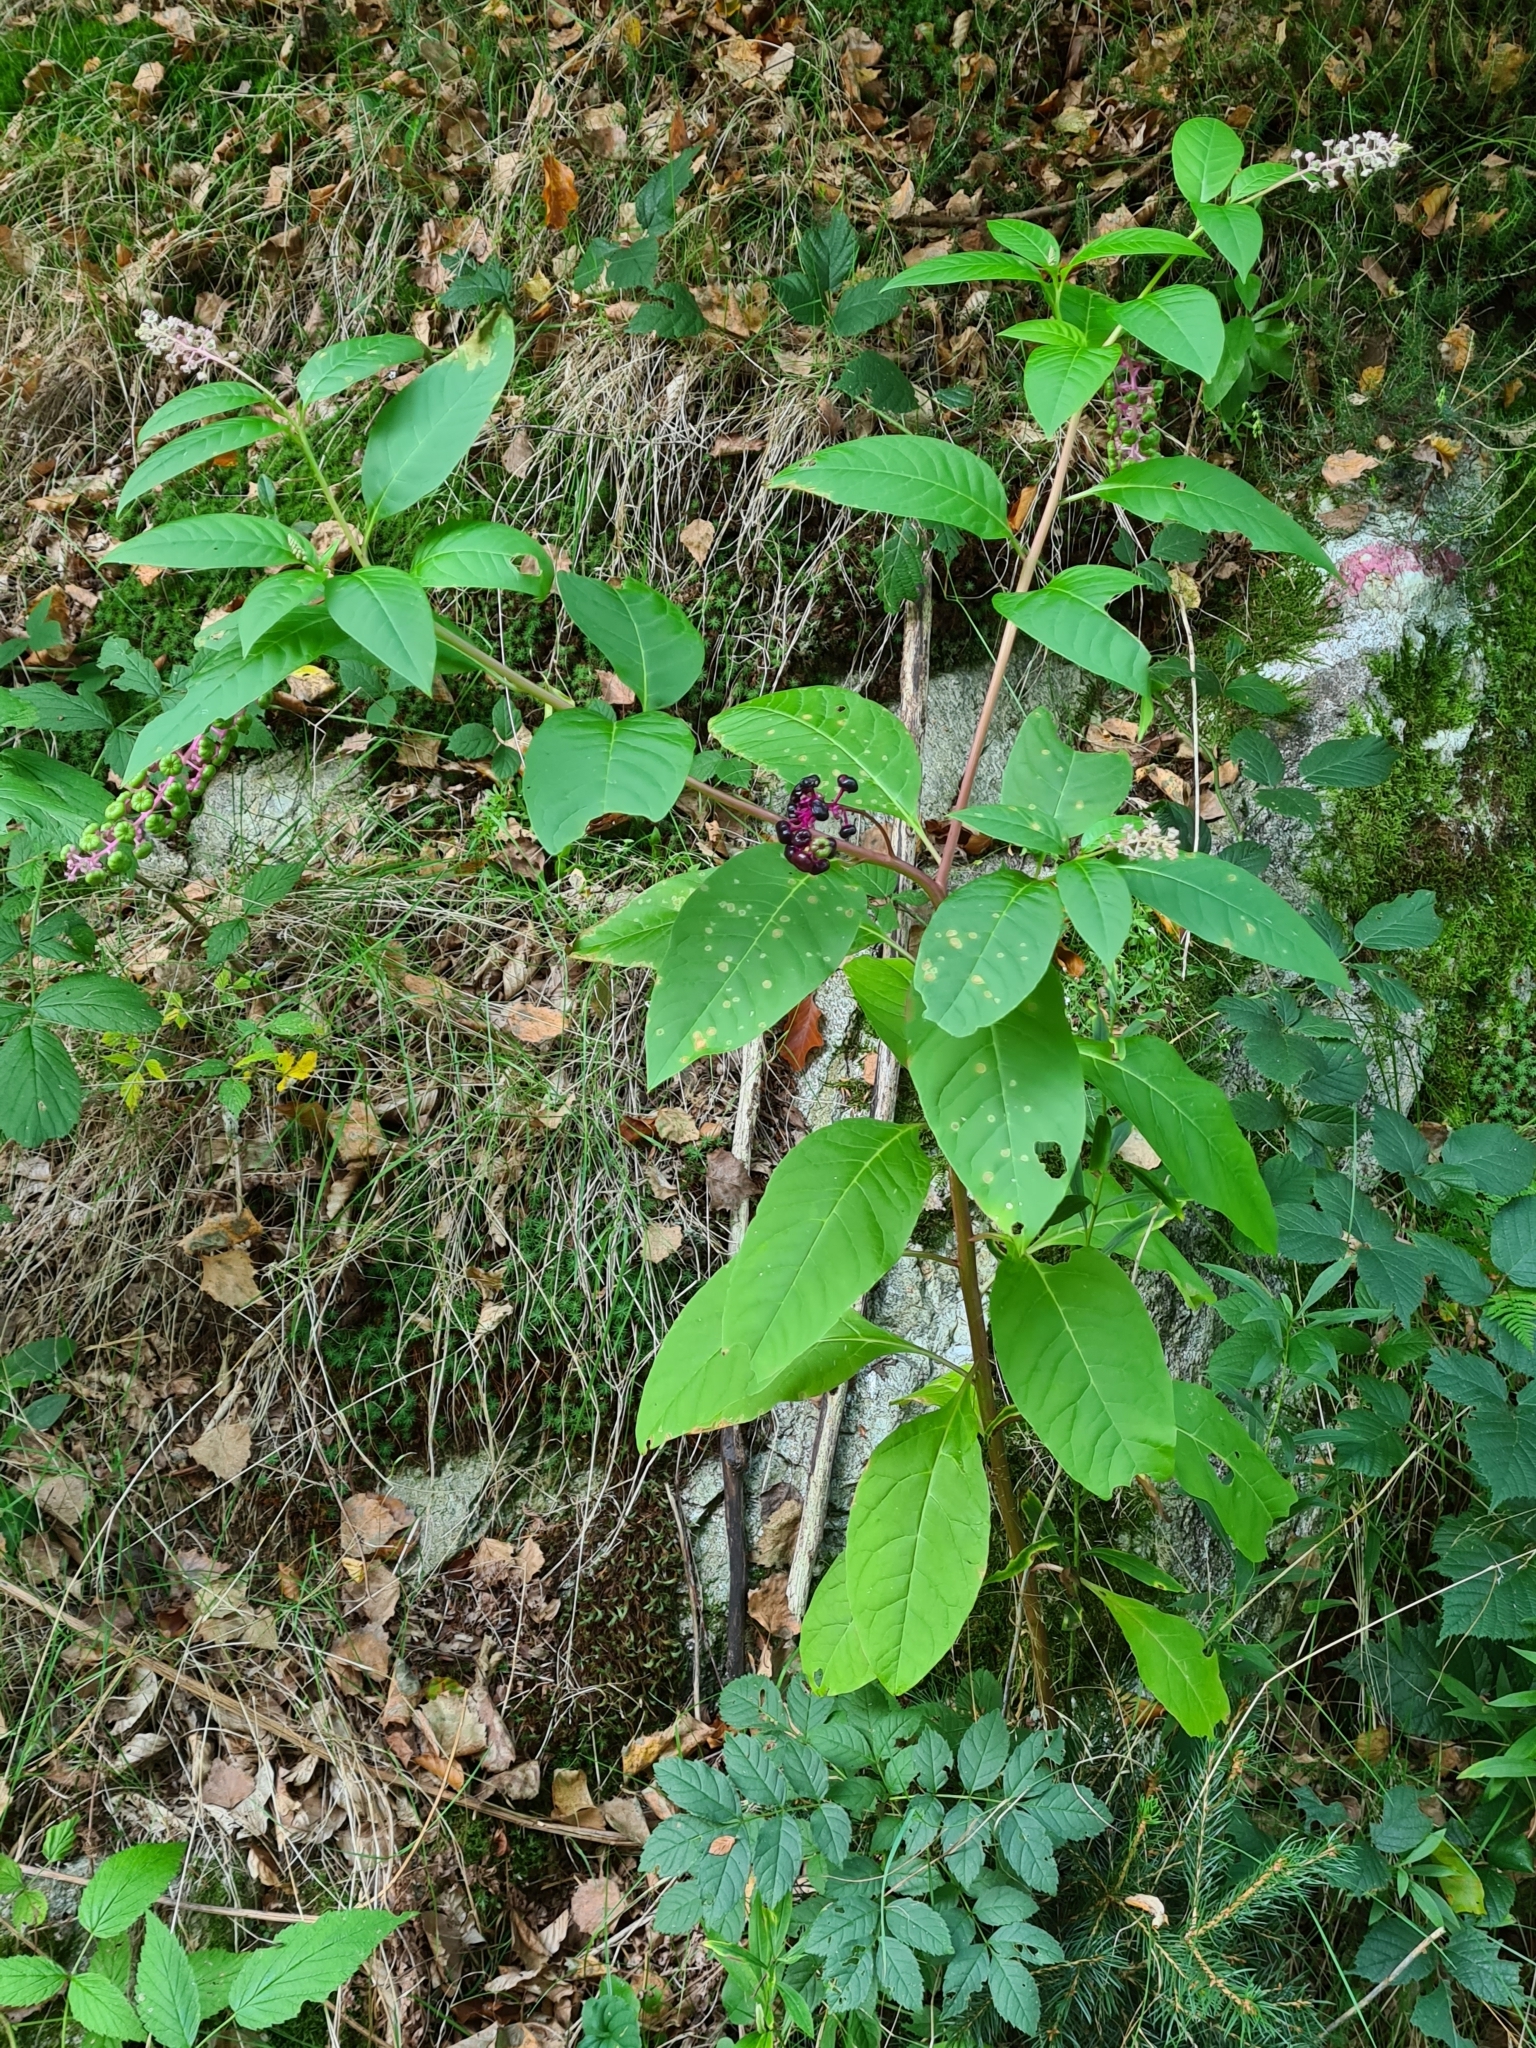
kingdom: Plantae
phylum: Tracheophyta
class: Magnoliopsida
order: Caryophyllales
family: Phytolaccaceae
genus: Phytolacca
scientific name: Phytolacca americana
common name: American pokeweed
